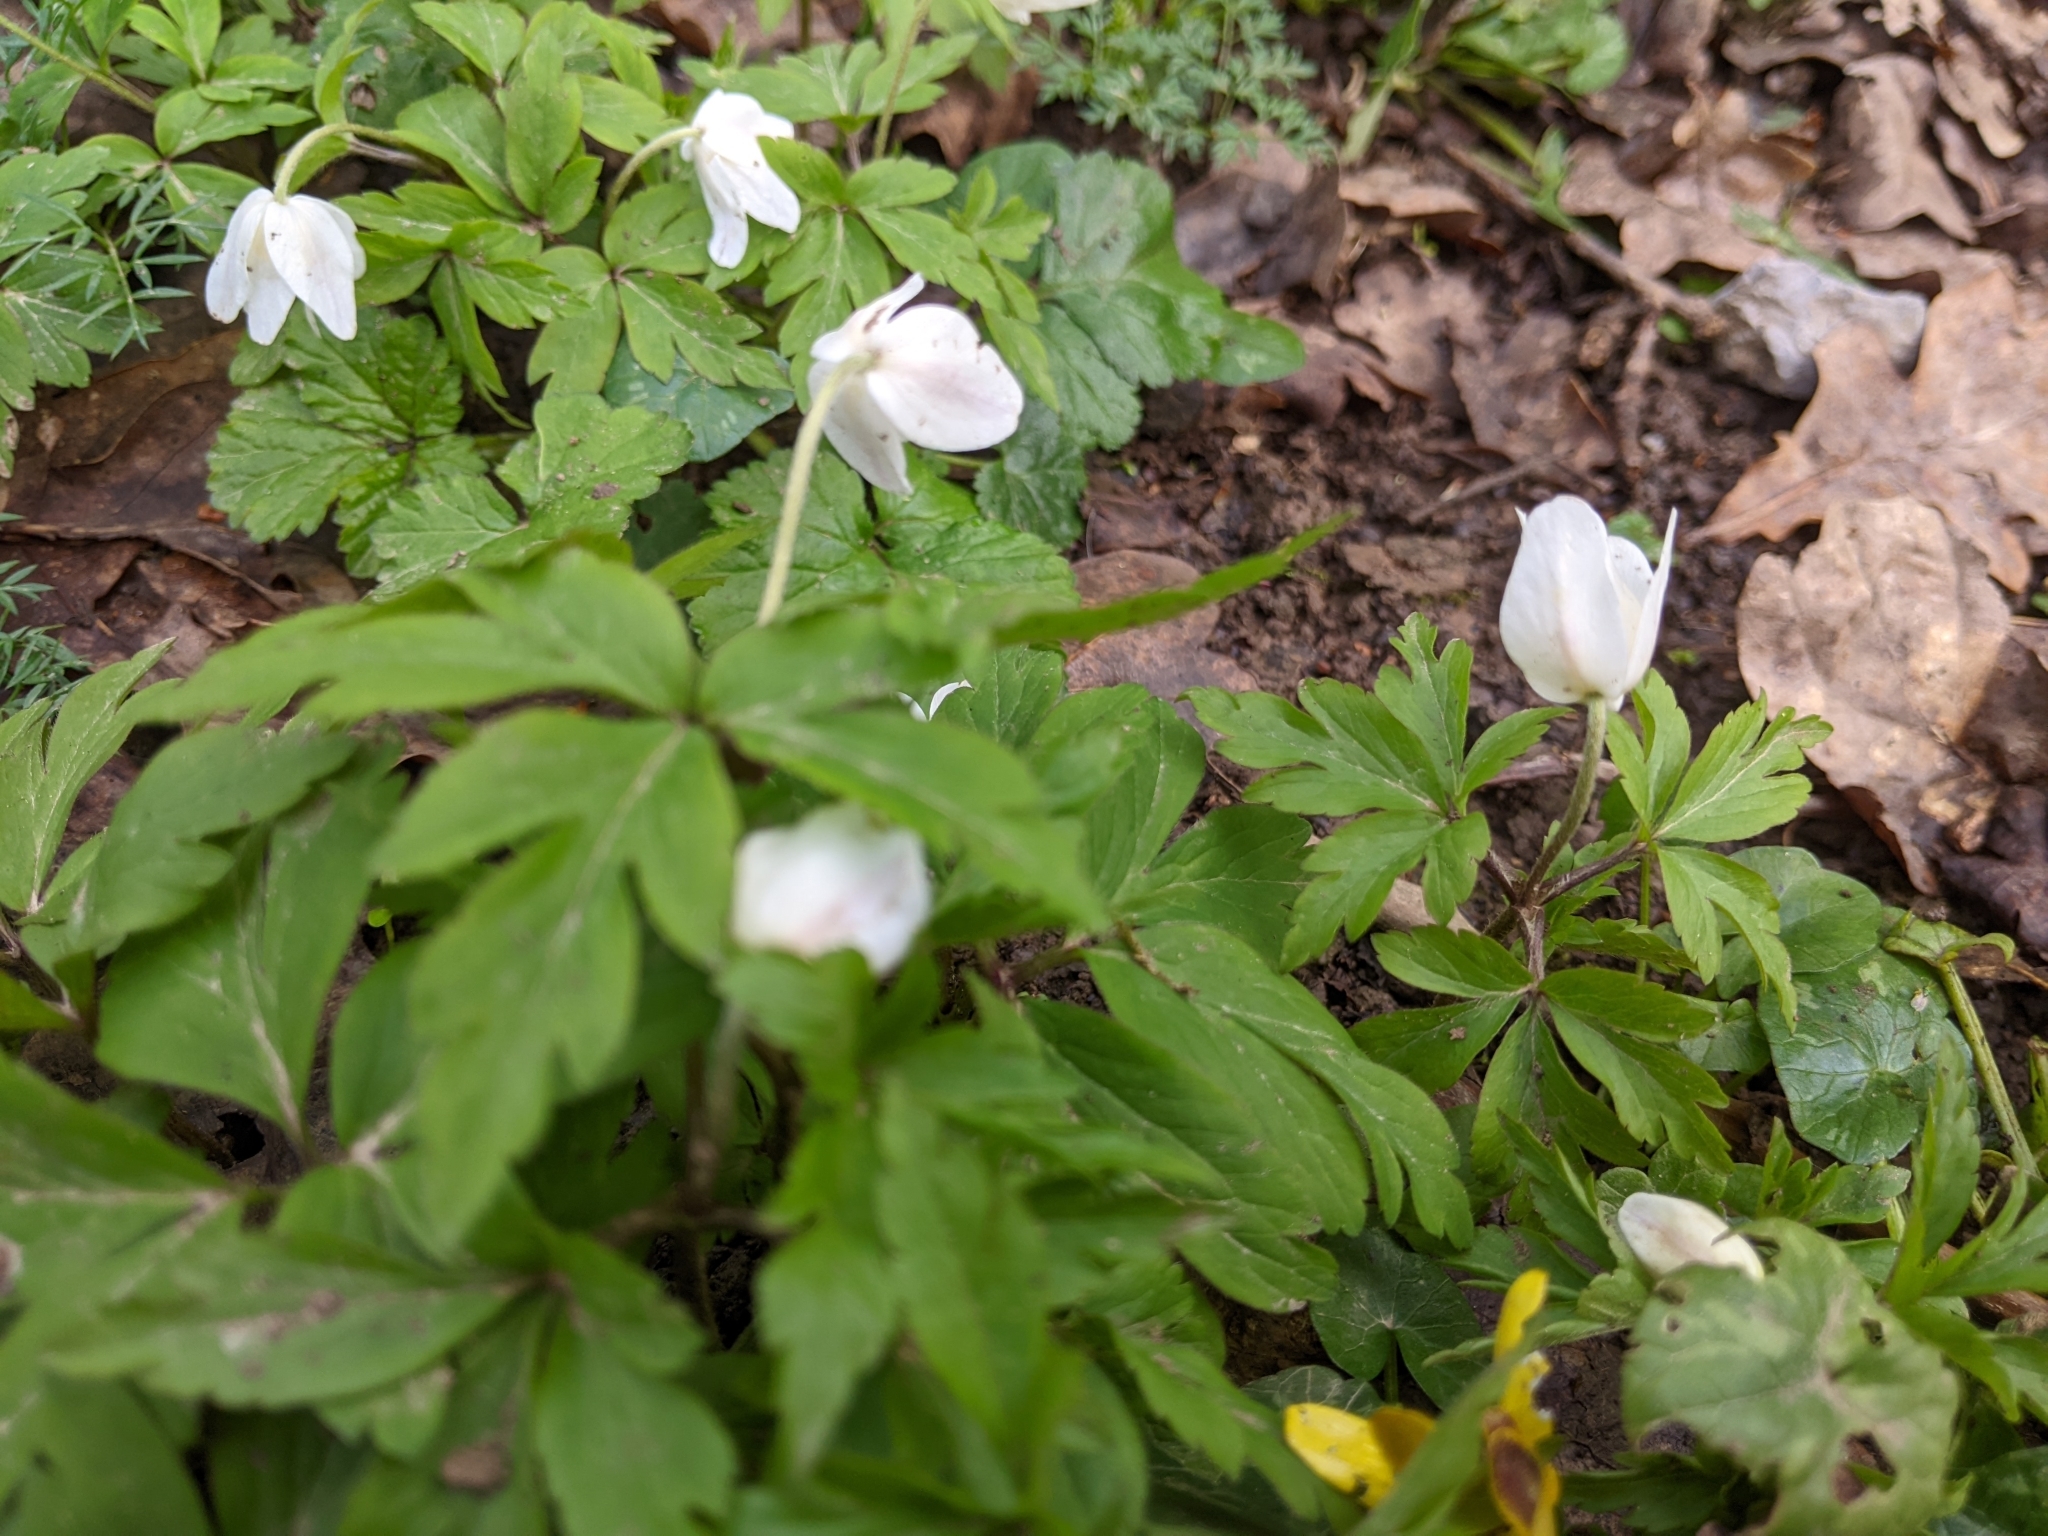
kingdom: Plantae
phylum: Tracheophyta
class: Magnoliopsida
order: Ranunculales
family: Ranunculaceae
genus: Anemone
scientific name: Anemone nemorosa
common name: Wood anemone
